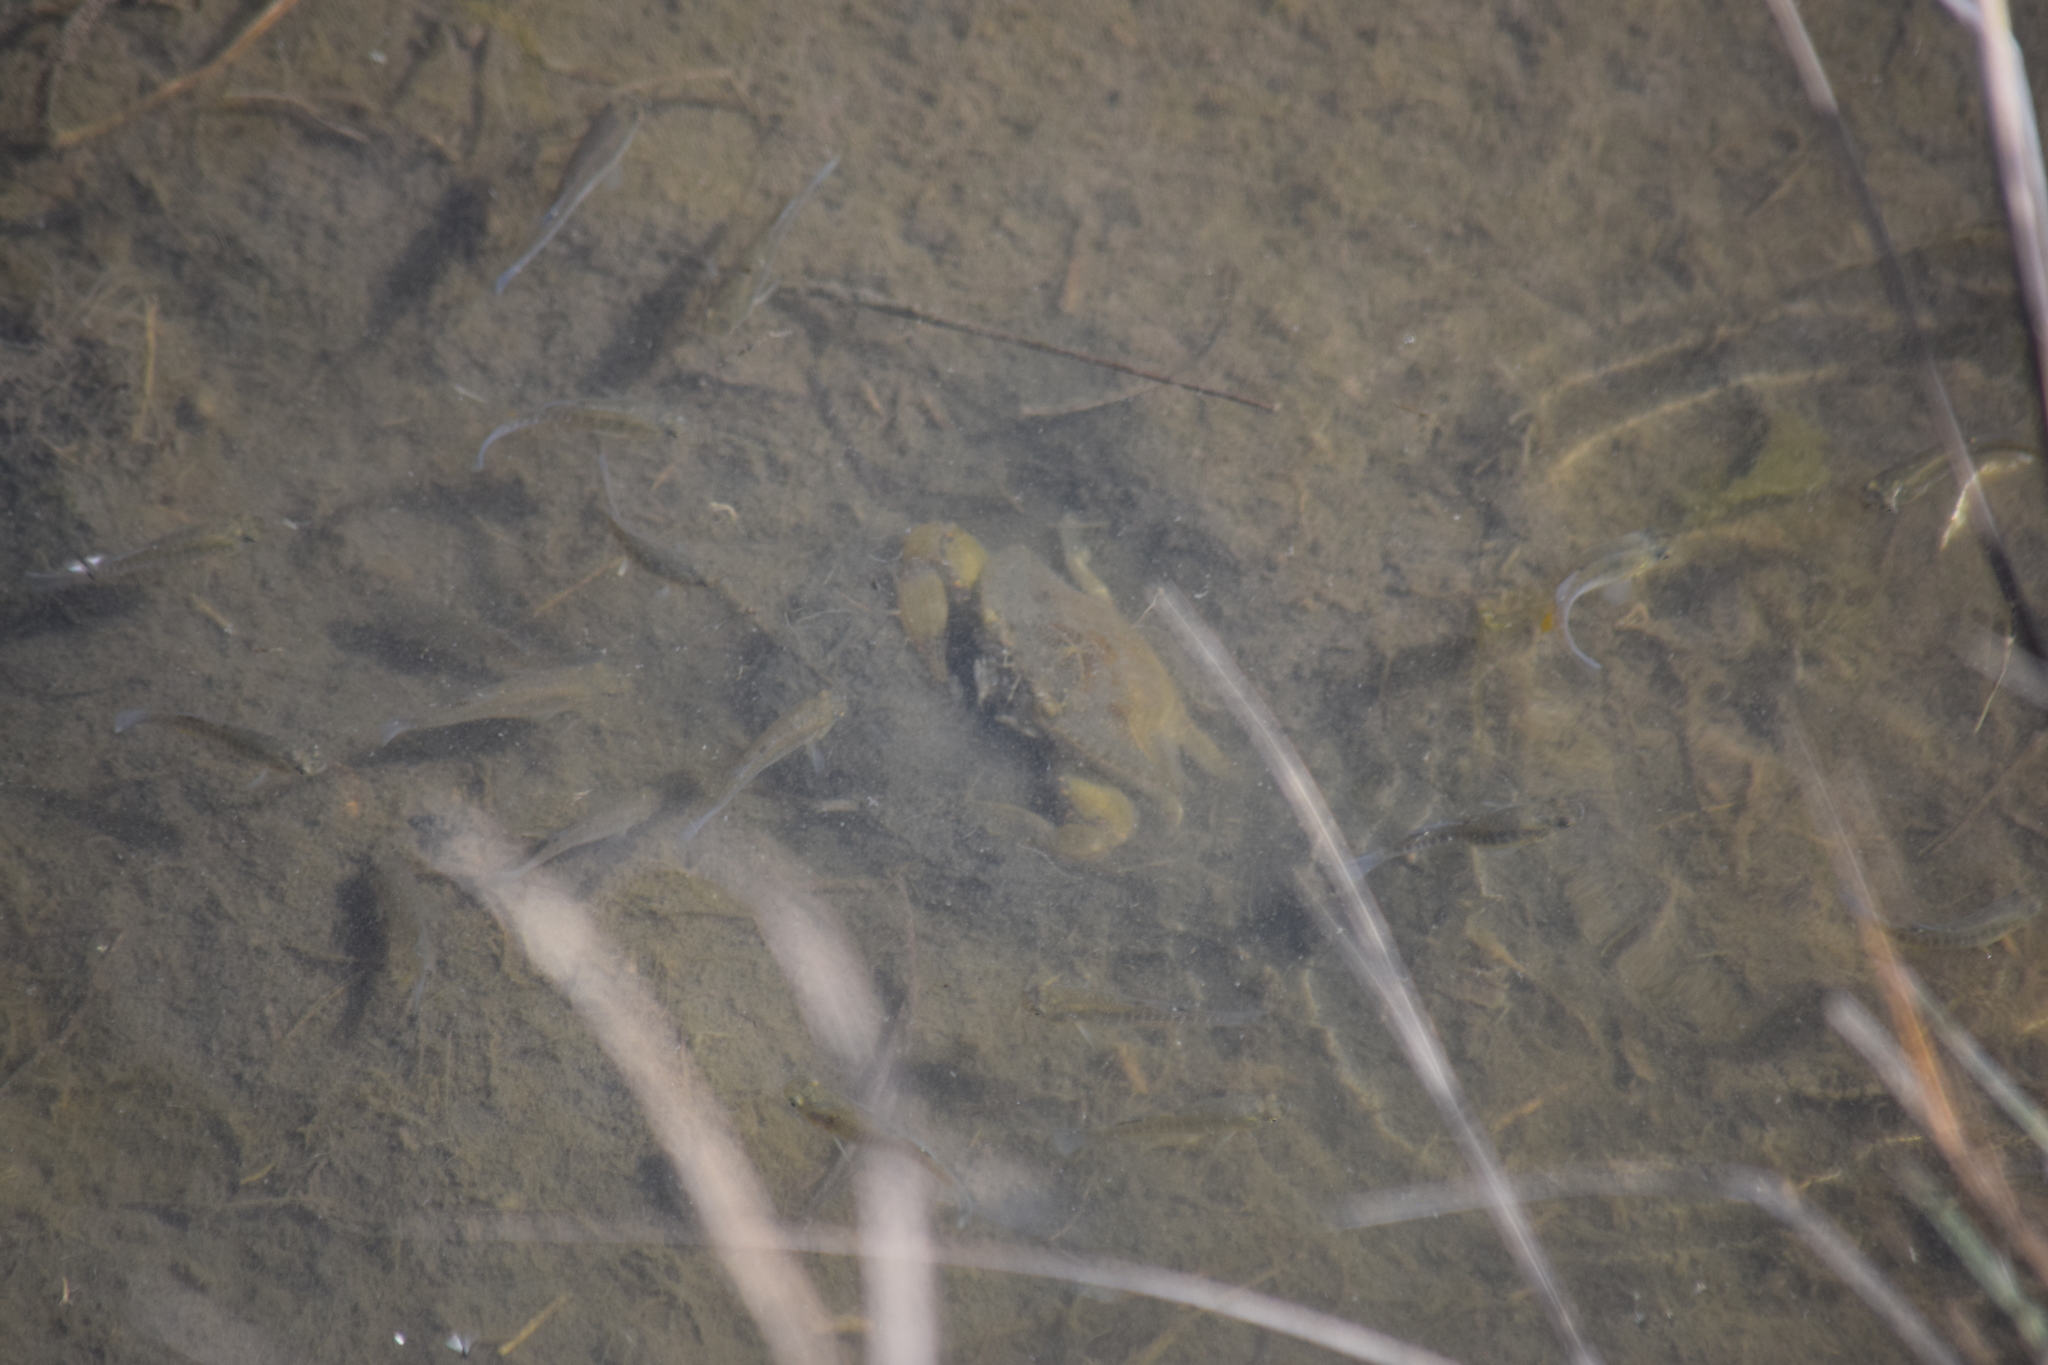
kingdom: Animalia
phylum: Arthropoda
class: Malacostraca
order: Decapoda
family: Portunidae
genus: Callinectes
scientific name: Callinectes sapidus
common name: Blue crab
